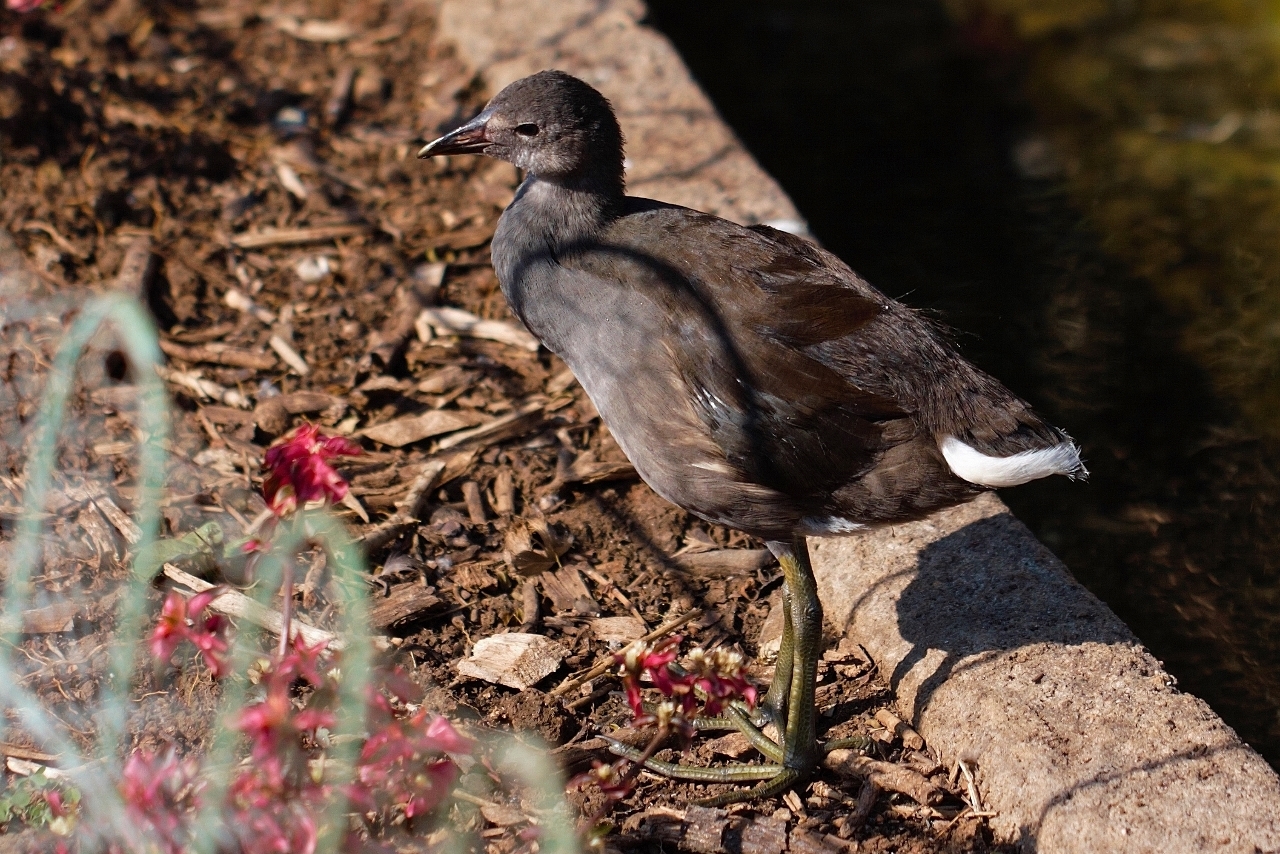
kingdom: Animalia
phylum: Chordata
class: Aves
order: Gruiformes
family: Rallidae
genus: Gallinula
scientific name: Gallinula chloropus
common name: Common moorhen
